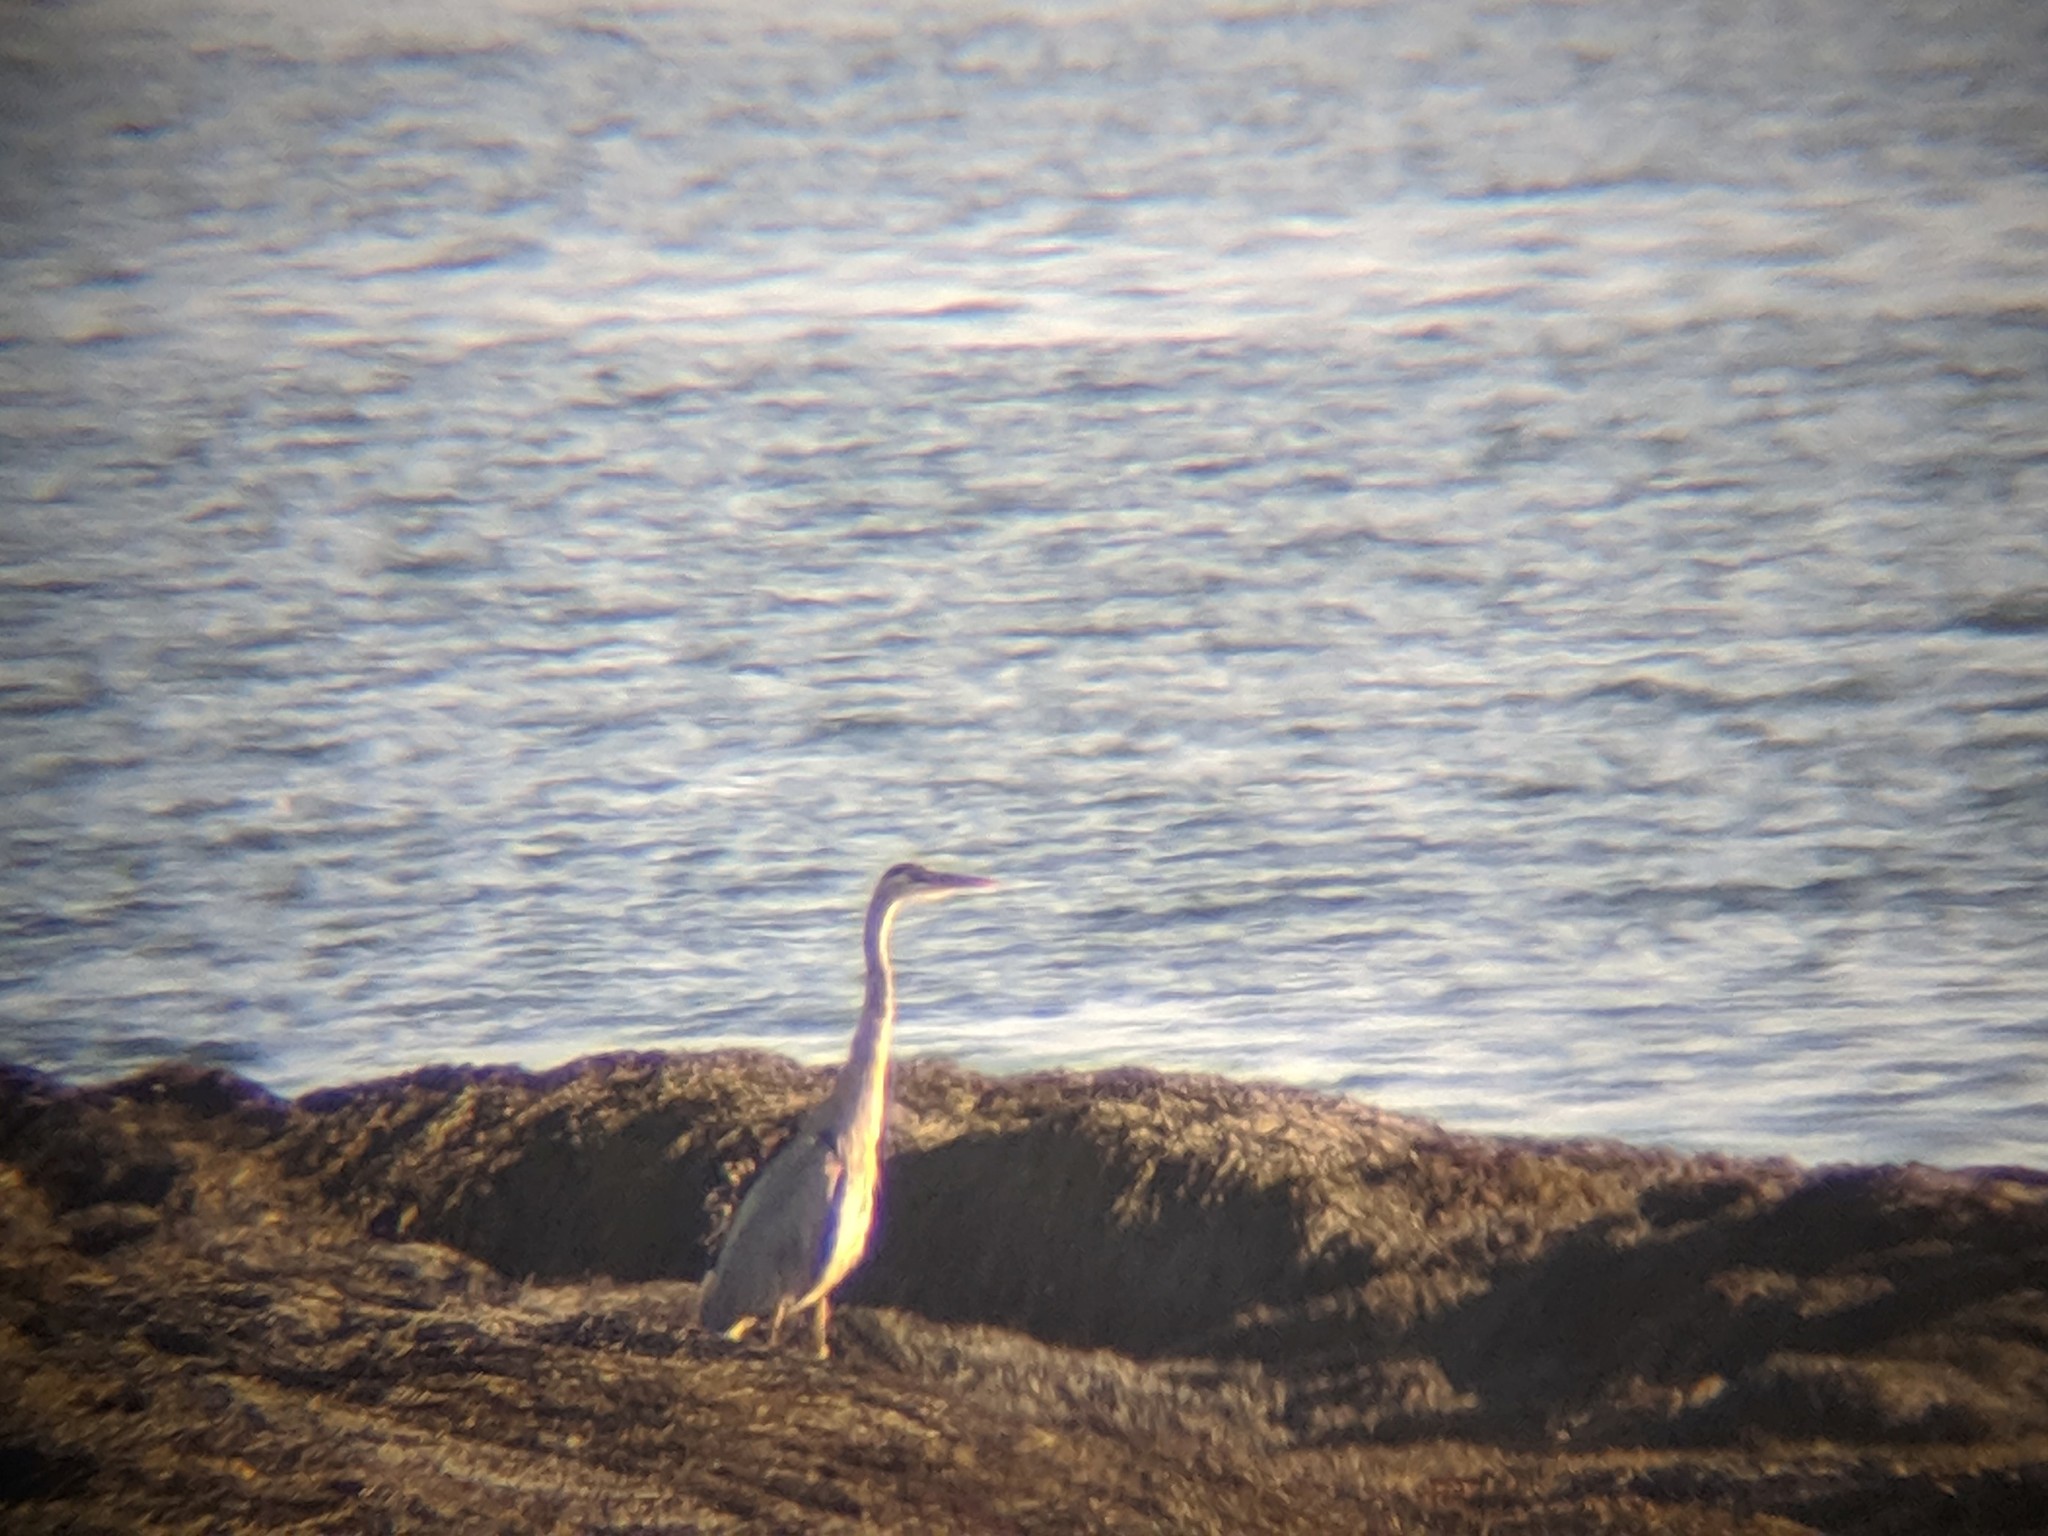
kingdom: Animalia
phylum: Chordata
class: Aves
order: Pelecaniformes
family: Ardeidae
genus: Ardea
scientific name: Ardea herodias
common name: Great blue heron
